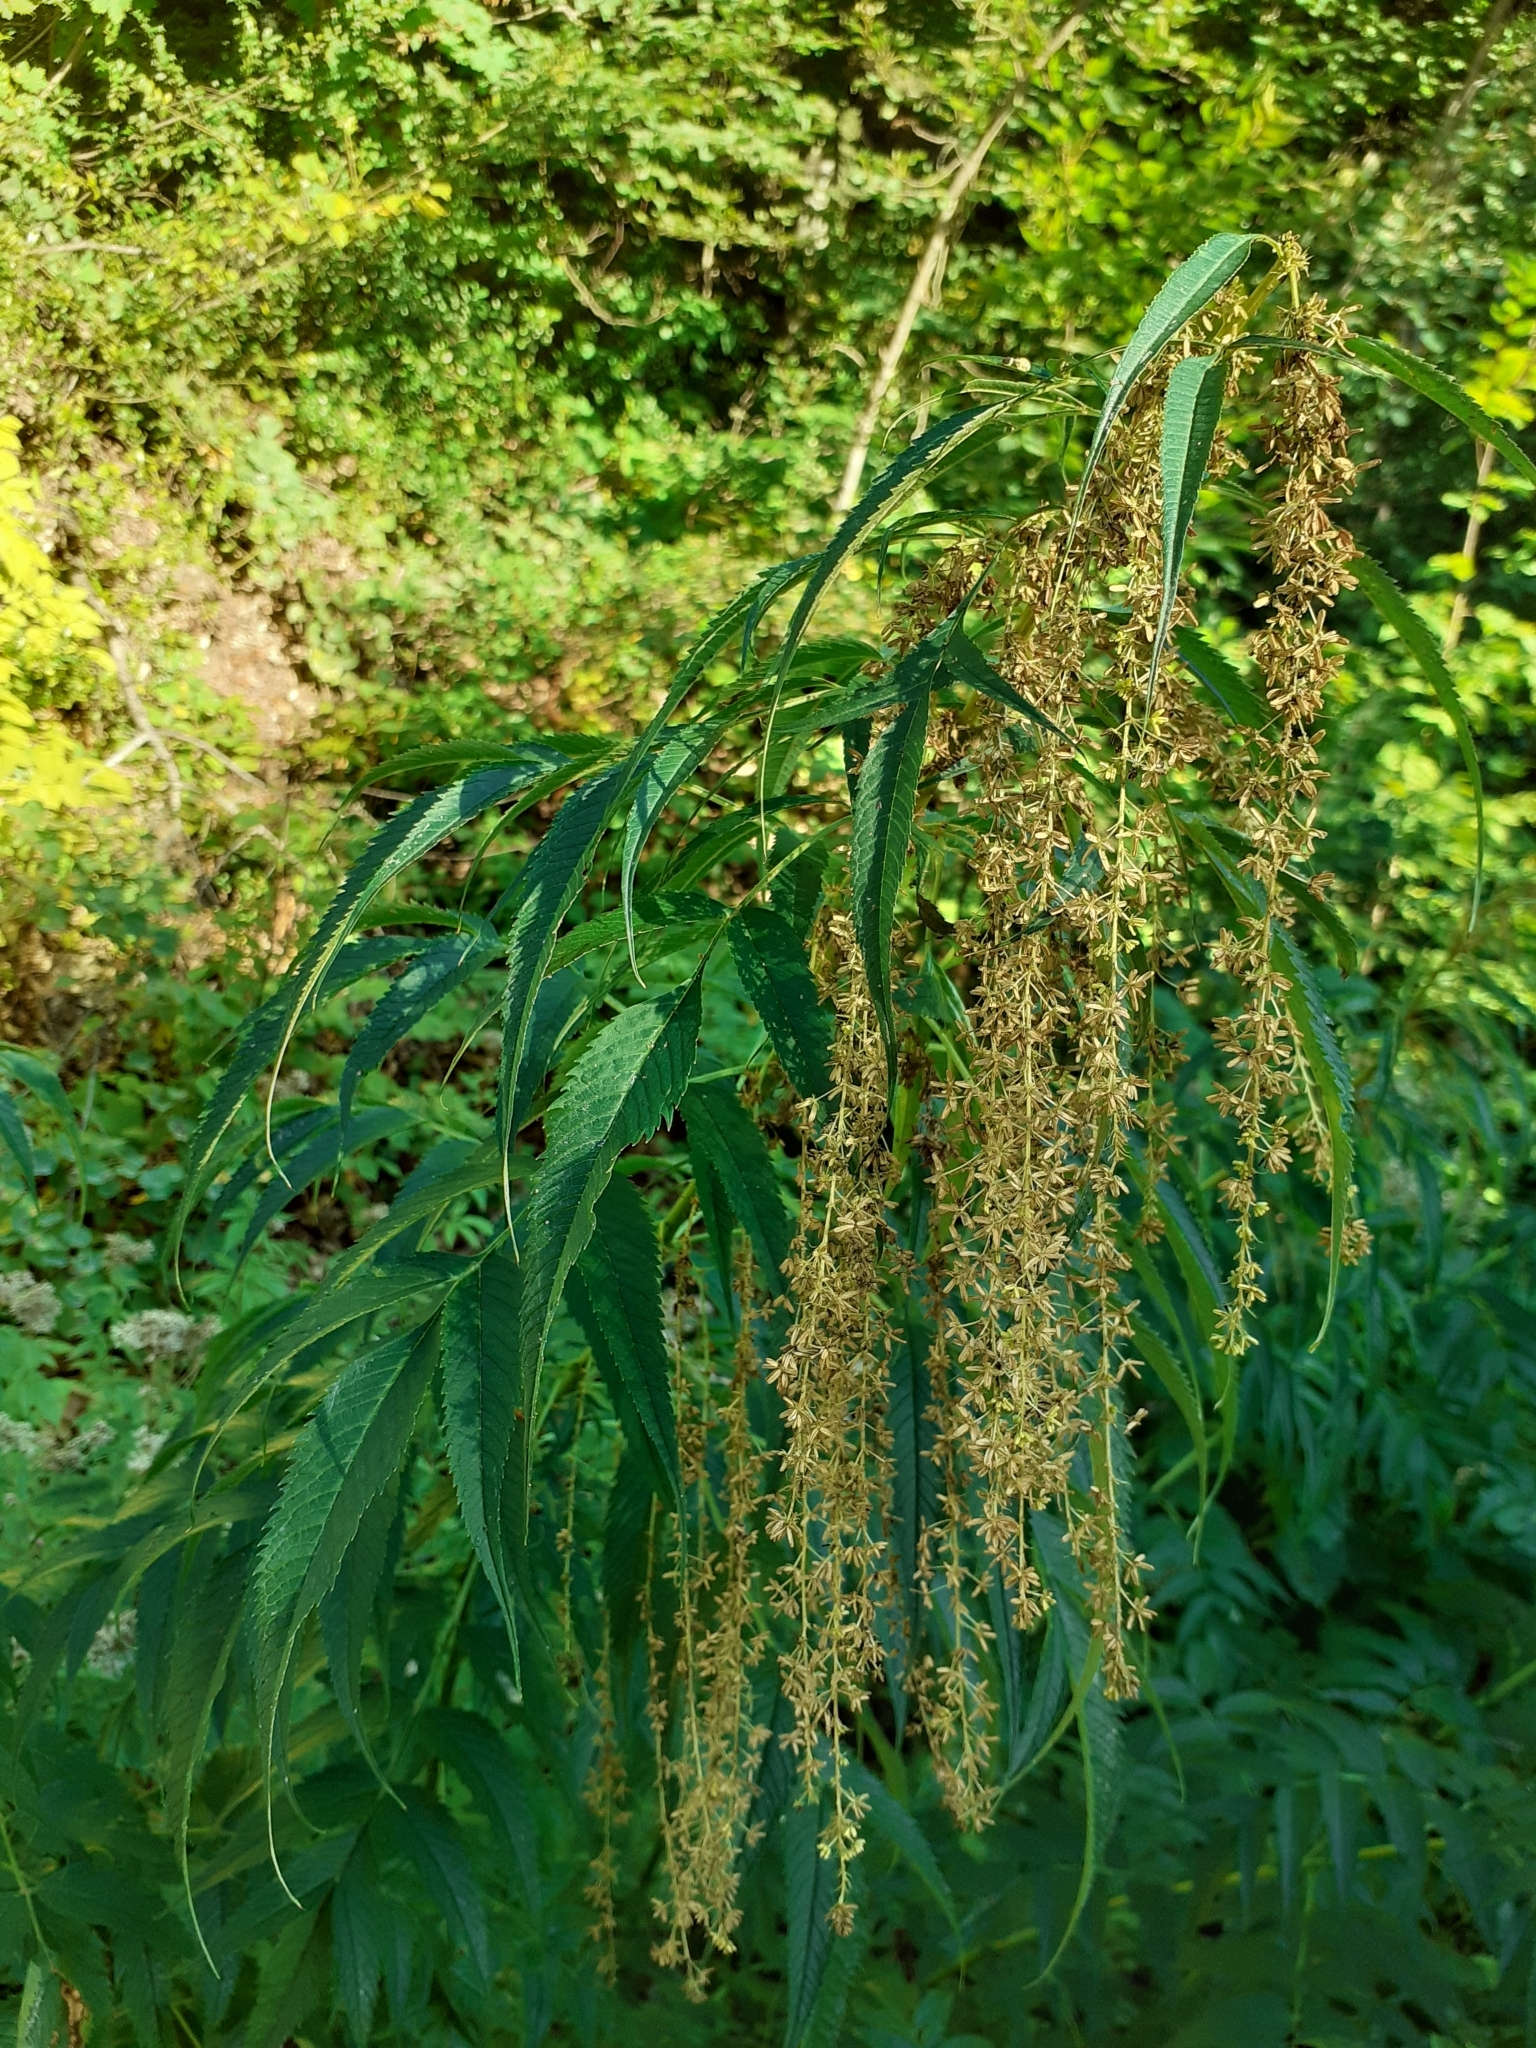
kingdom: Plantae
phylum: Tracheophyta
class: Magnoliopsida
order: Cucurbitales
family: Datiscaceae
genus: Datisca
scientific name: Datisca cannabina
